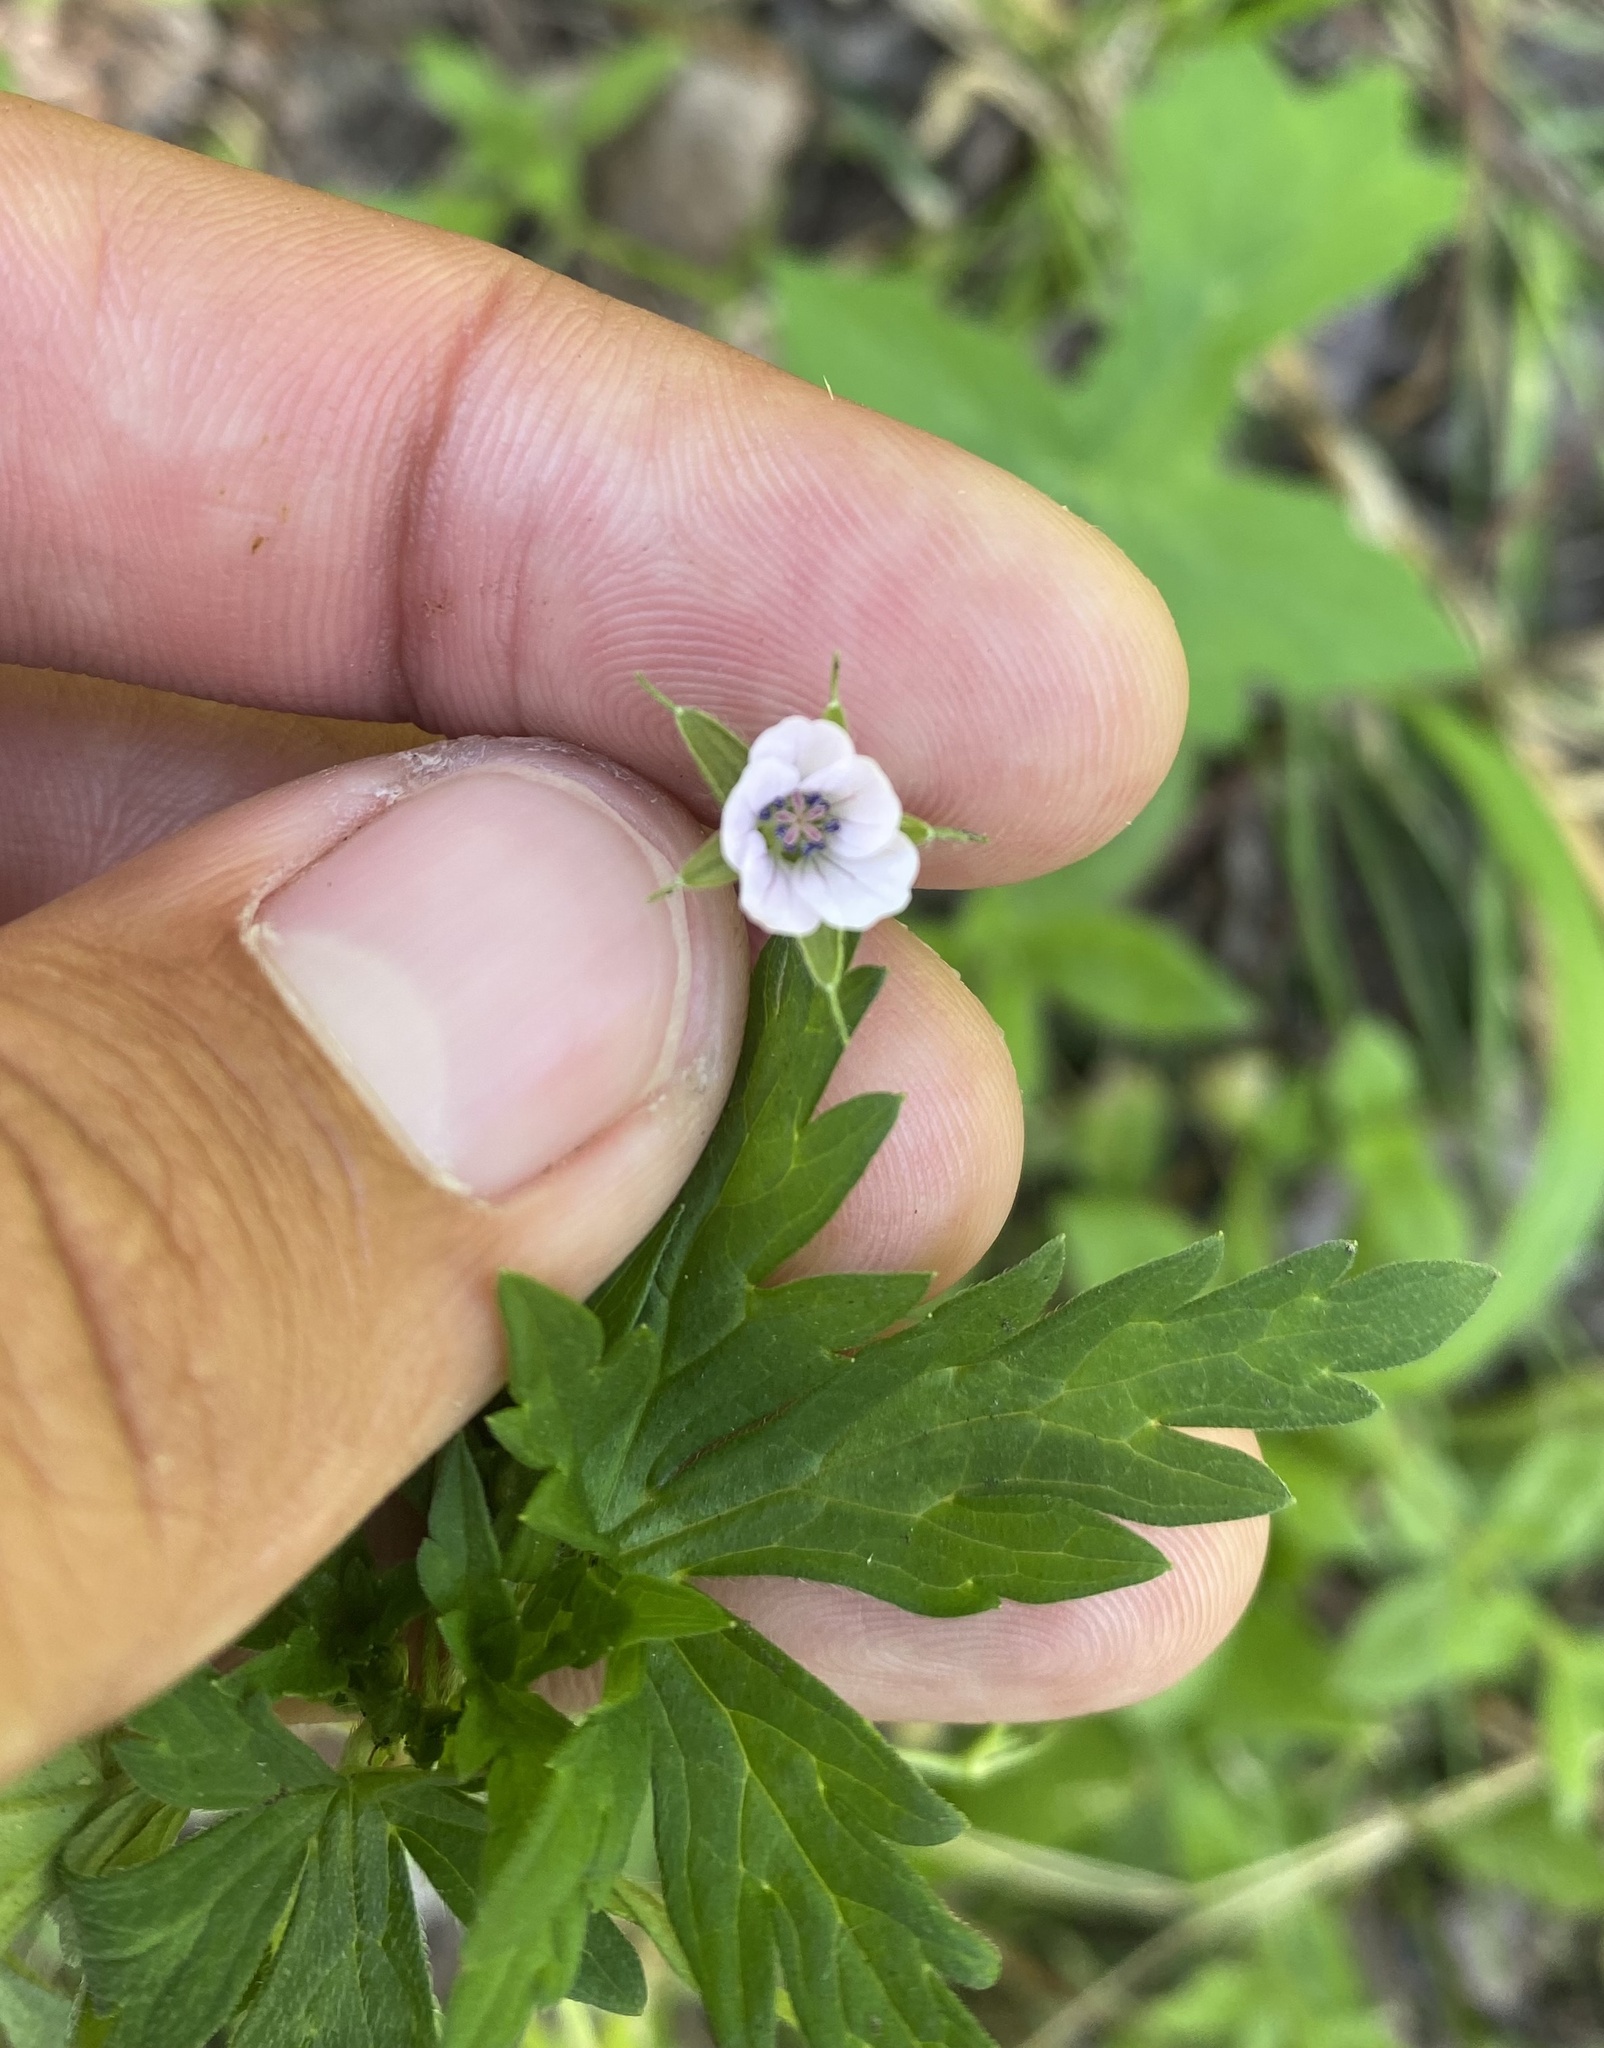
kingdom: Plantae
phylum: Tracheophyta
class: Magnoliopsida
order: Geraniales
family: Geraniaceae
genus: Geranium
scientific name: Geranium sibiricum
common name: Siberian crane's-bill
